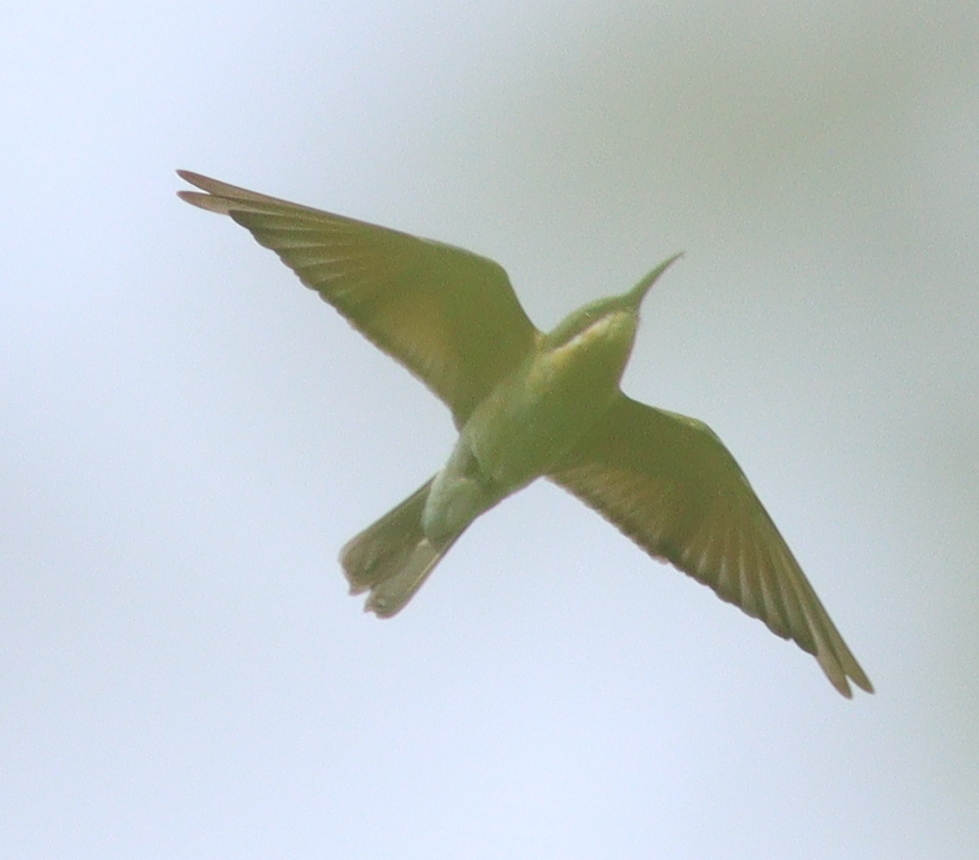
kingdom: Animalia
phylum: Chordata
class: Aves
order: Coraciiformes
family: Meropidae
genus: Merops
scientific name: Merops philippinus
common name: Blue-tailed bee-eater
